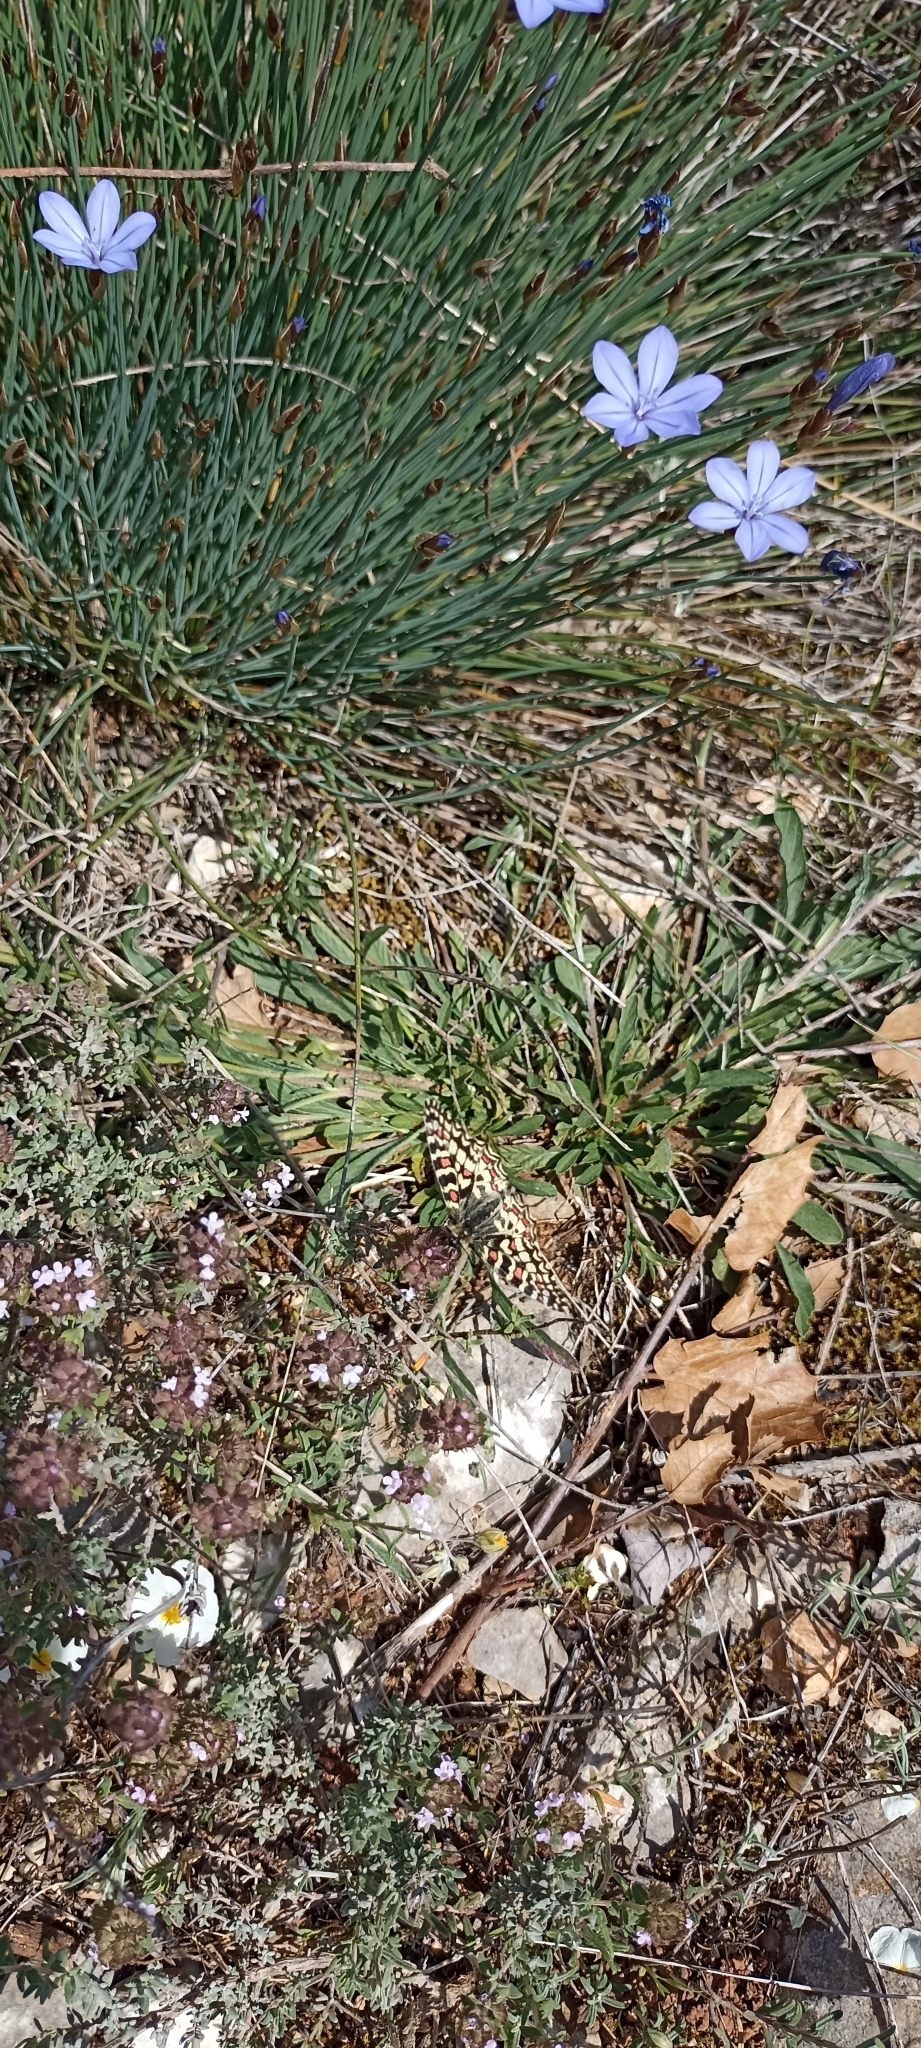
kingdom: Animalia
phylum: Arthropoda
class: Insecta
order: Lepidoptera
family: Papilionidae
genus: Zerynthia
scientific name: Zerynthia rumina
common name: Spanish festoon
